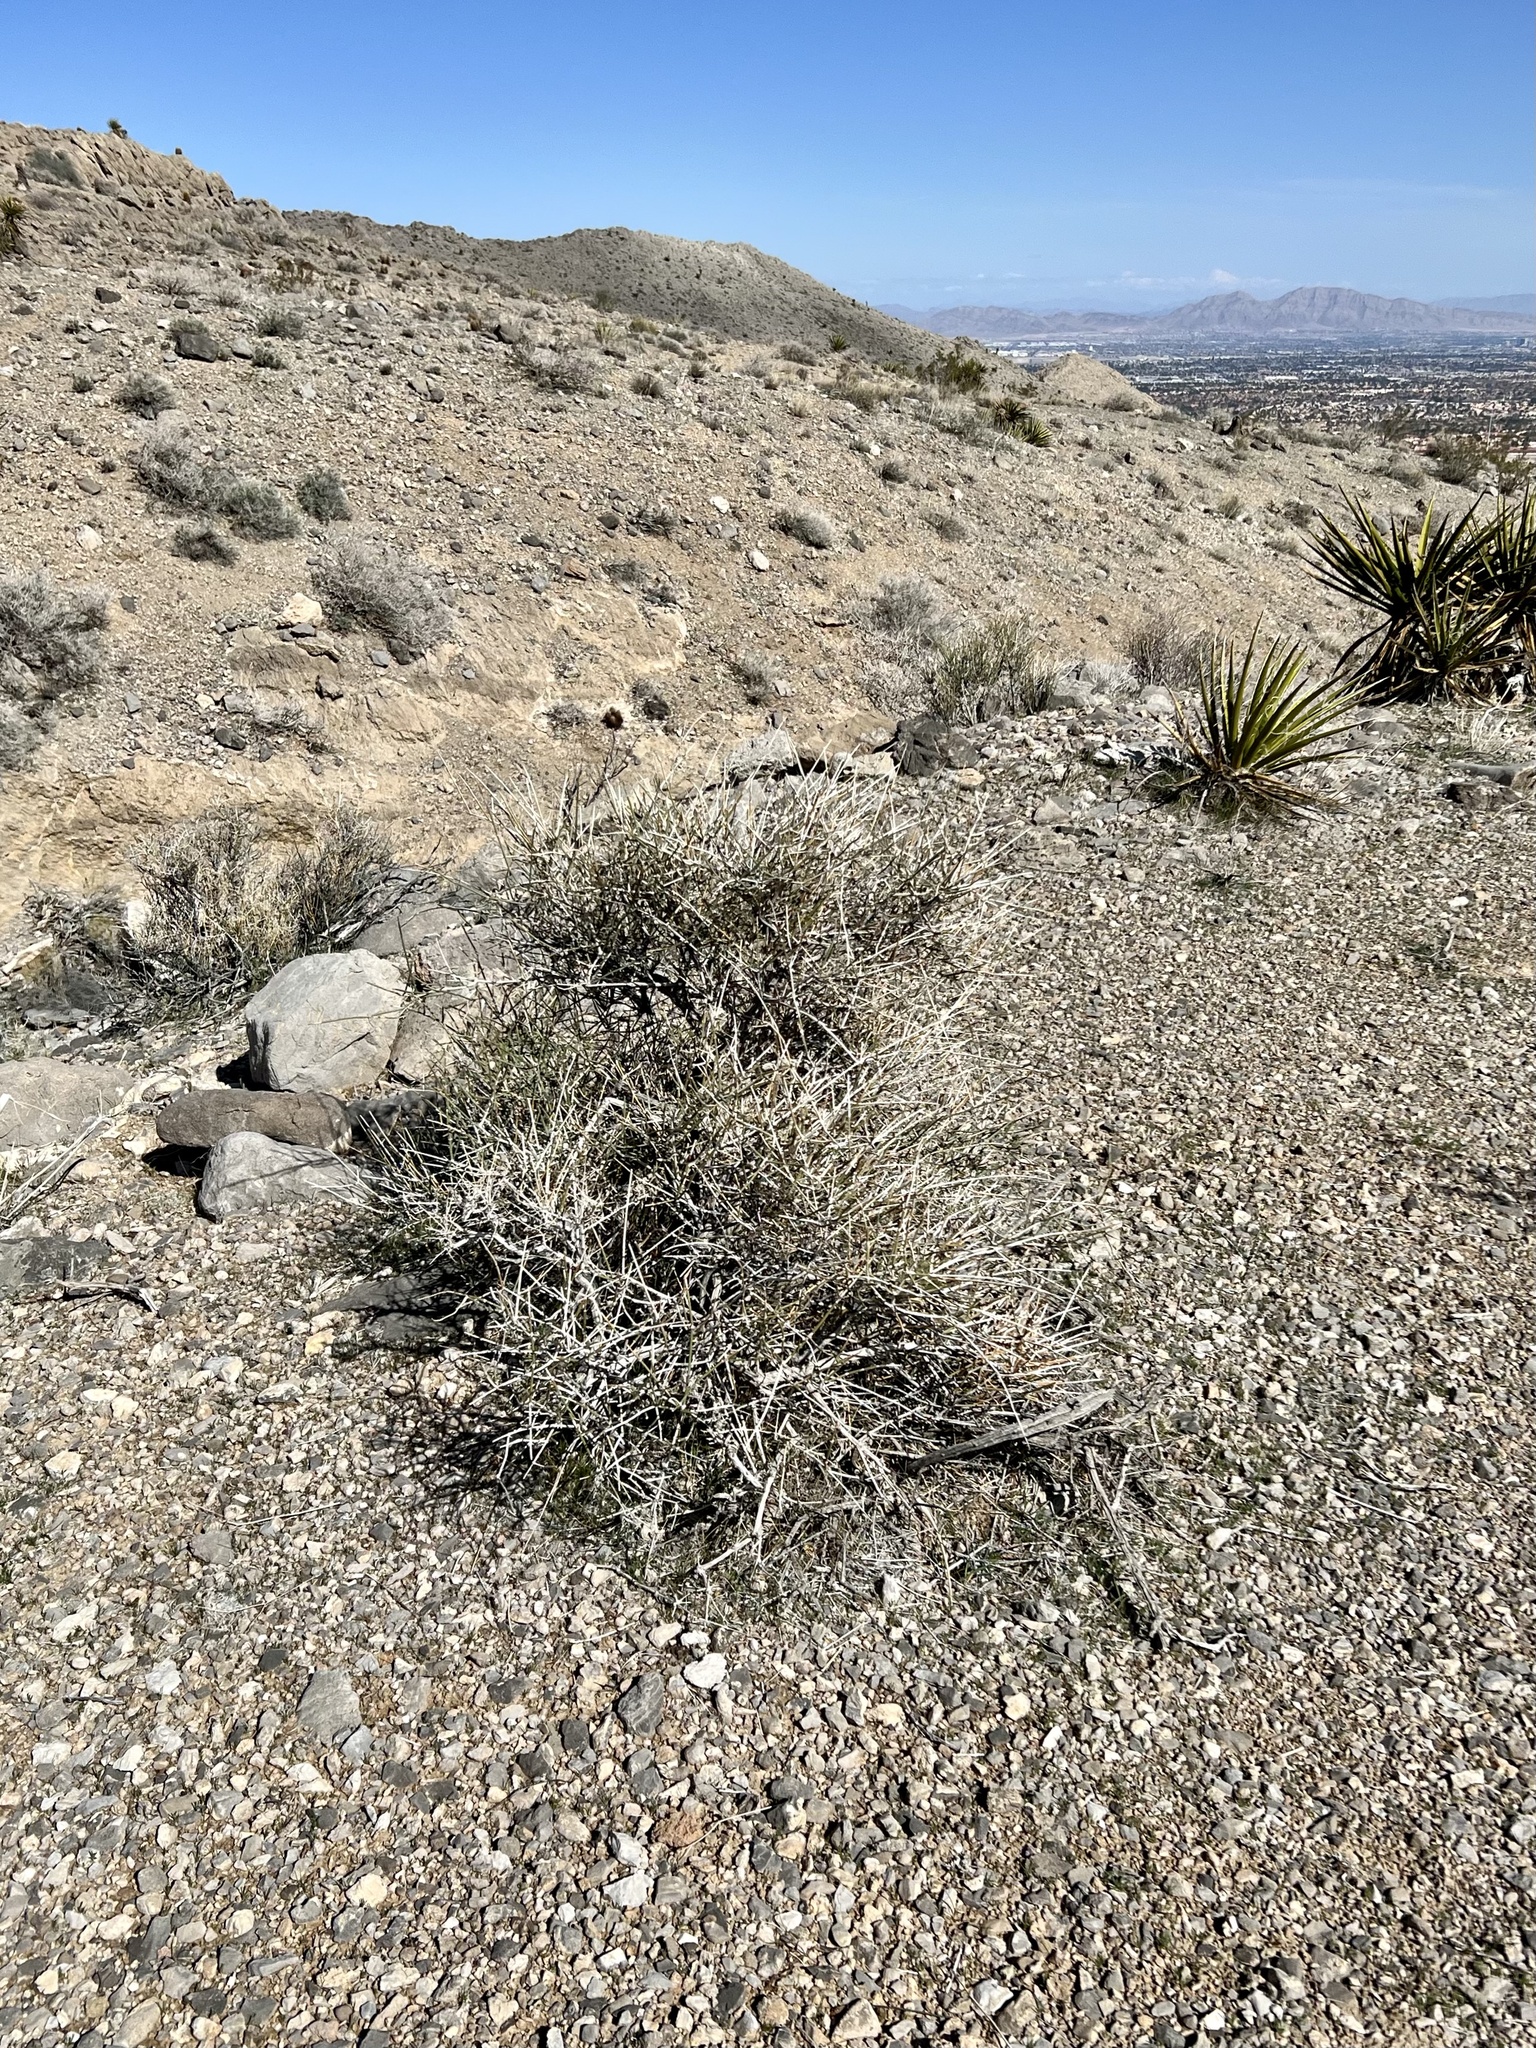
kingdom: Plantae
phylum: Tracheophyta
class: Gnetopsida
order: Ephedrales
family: Ephedraceae
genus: Ephedra
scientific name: Ephedra nevadensis
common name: Gray ephedra
